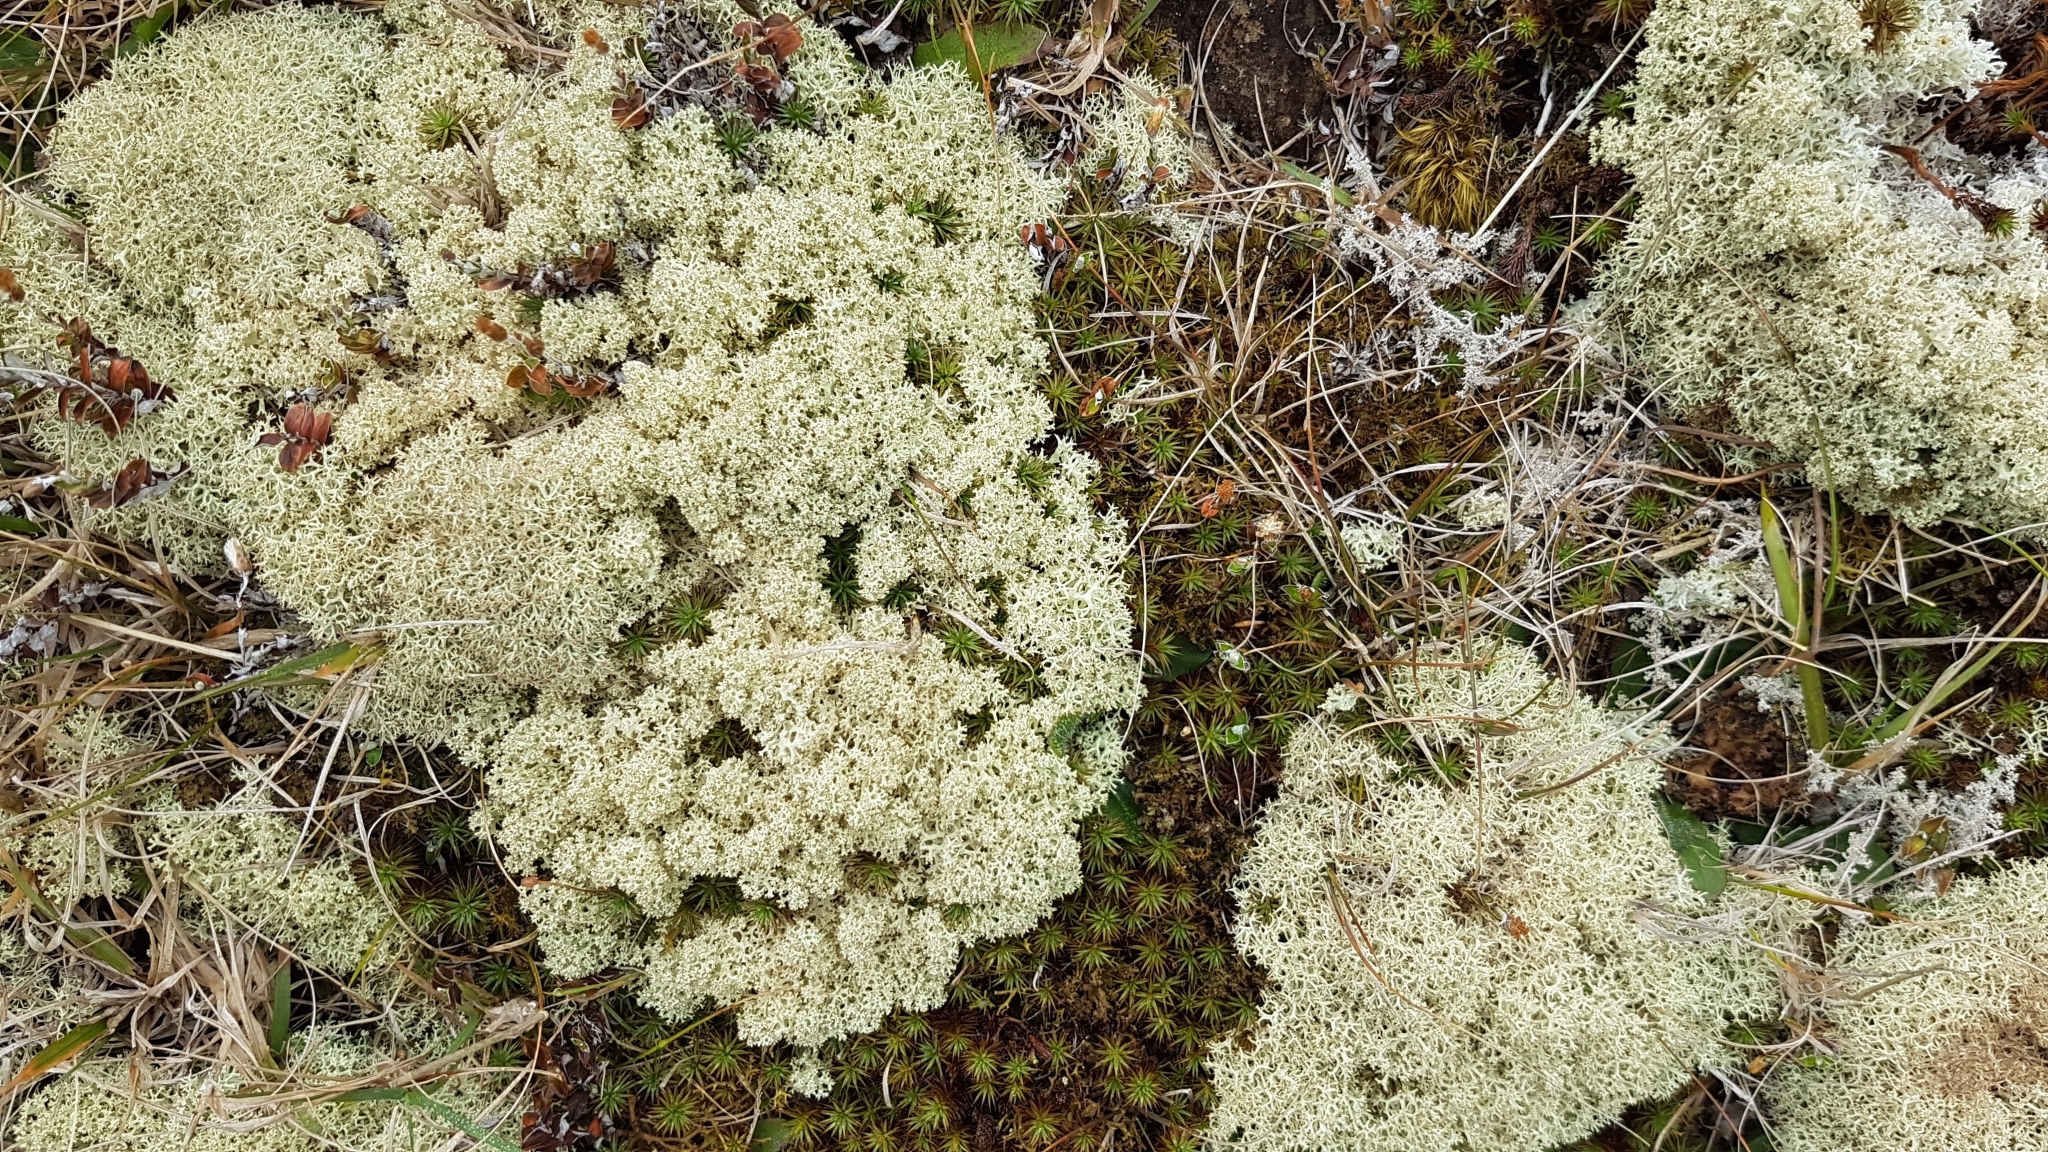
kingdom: Fungi
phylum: Ascomycota
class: Lecanoromycetes
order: Lecanorales
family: Cladoniaceae
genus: Cladonia
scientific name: Cladonia confusa
